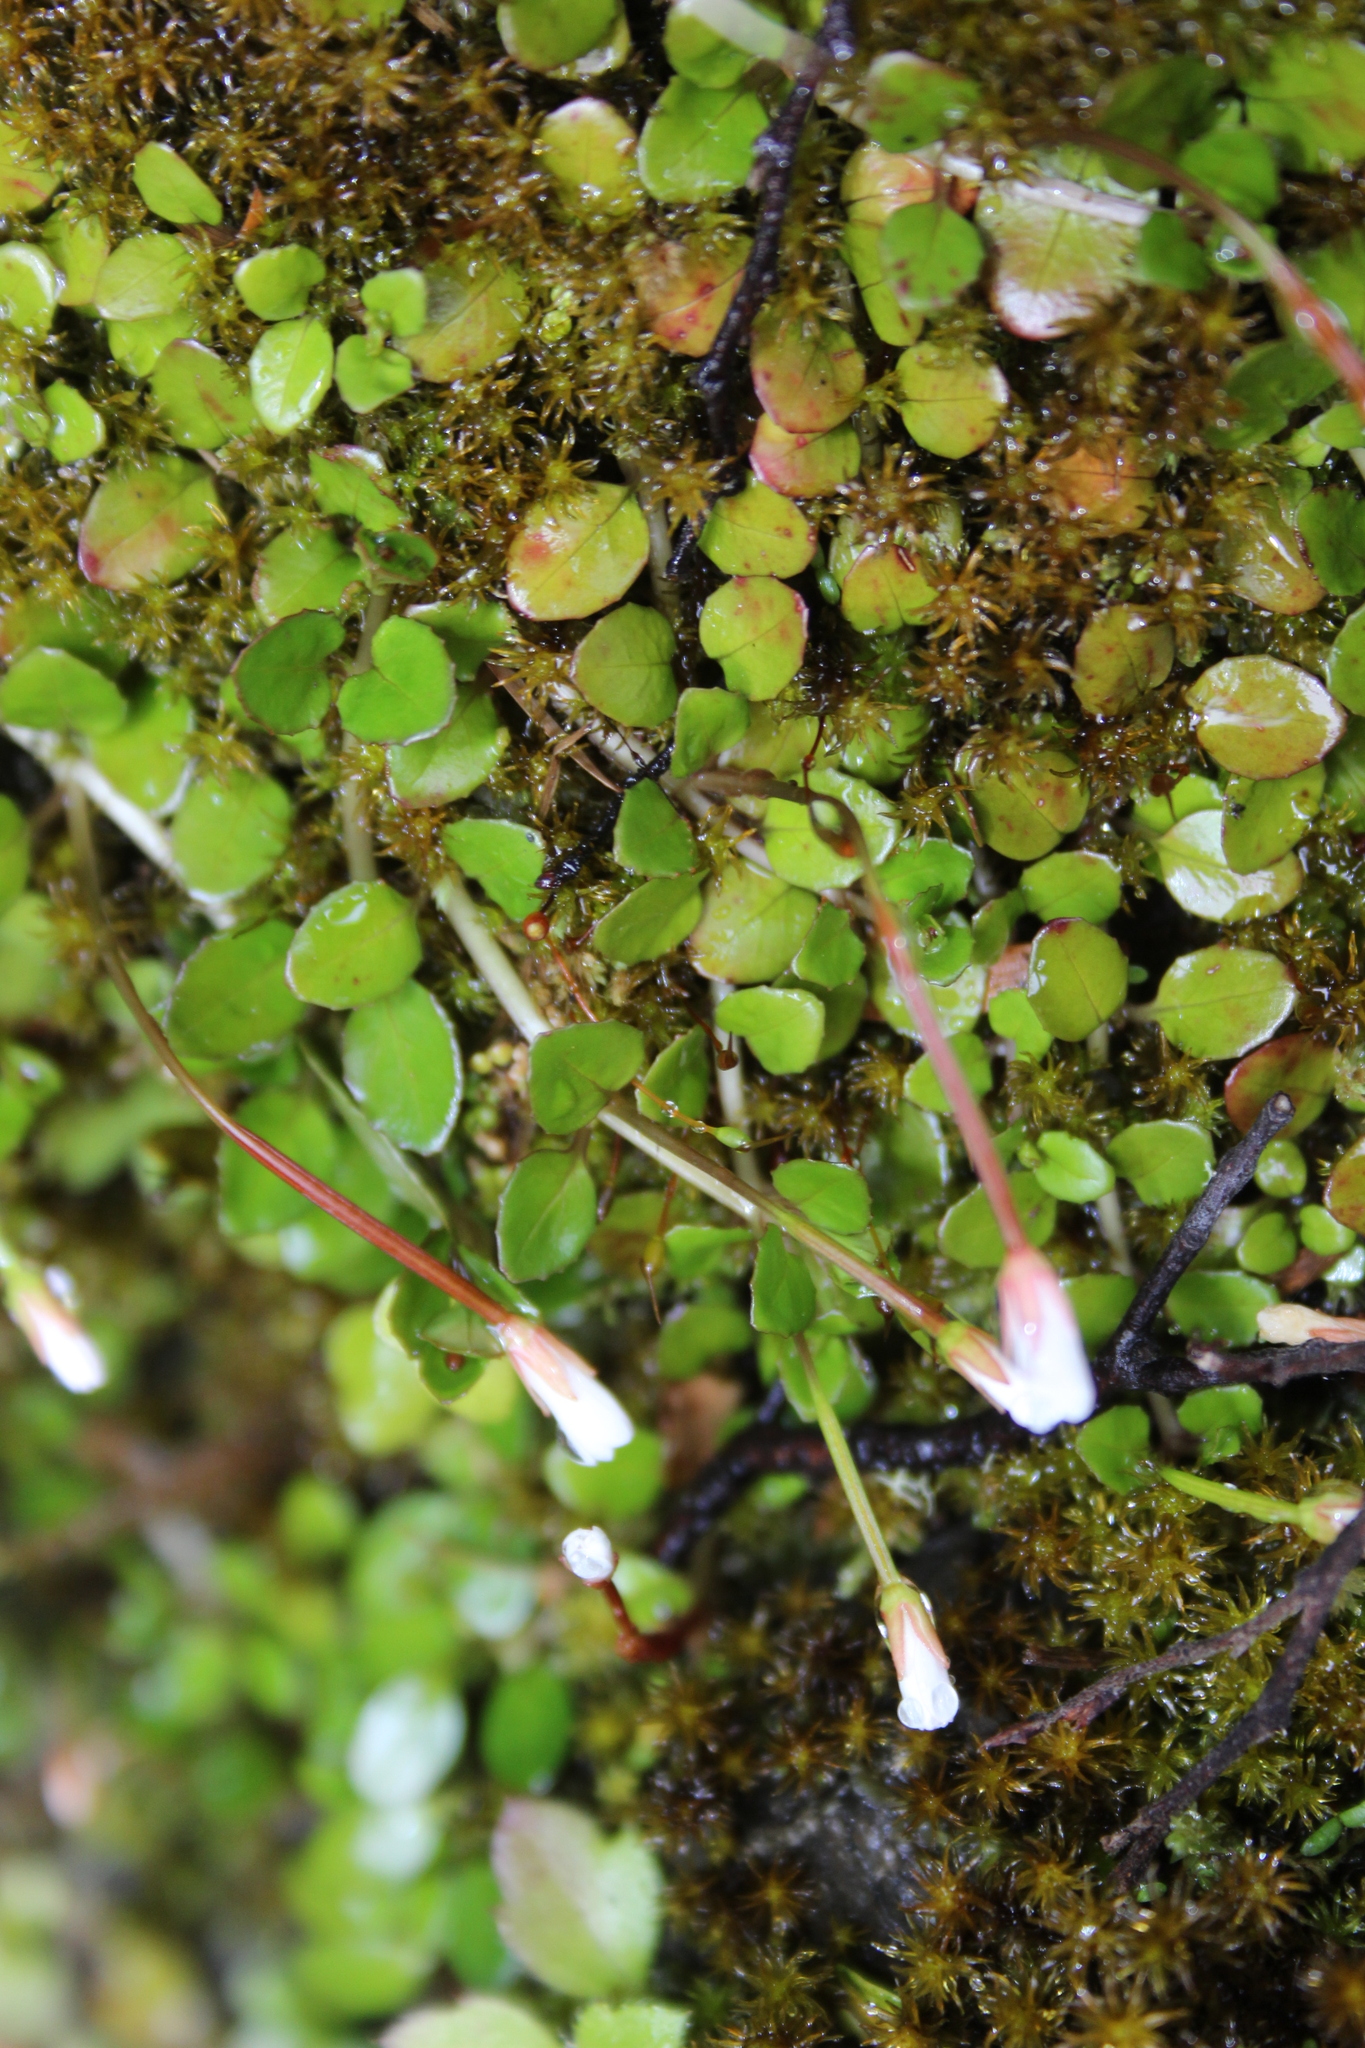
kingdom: Plantae
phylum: Tracheophyta
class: Magnoliopsida
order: Myrtales
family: Onagraceae
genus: Epilobium
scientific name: Epilobium brunnescens
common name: New zealand willowherb
